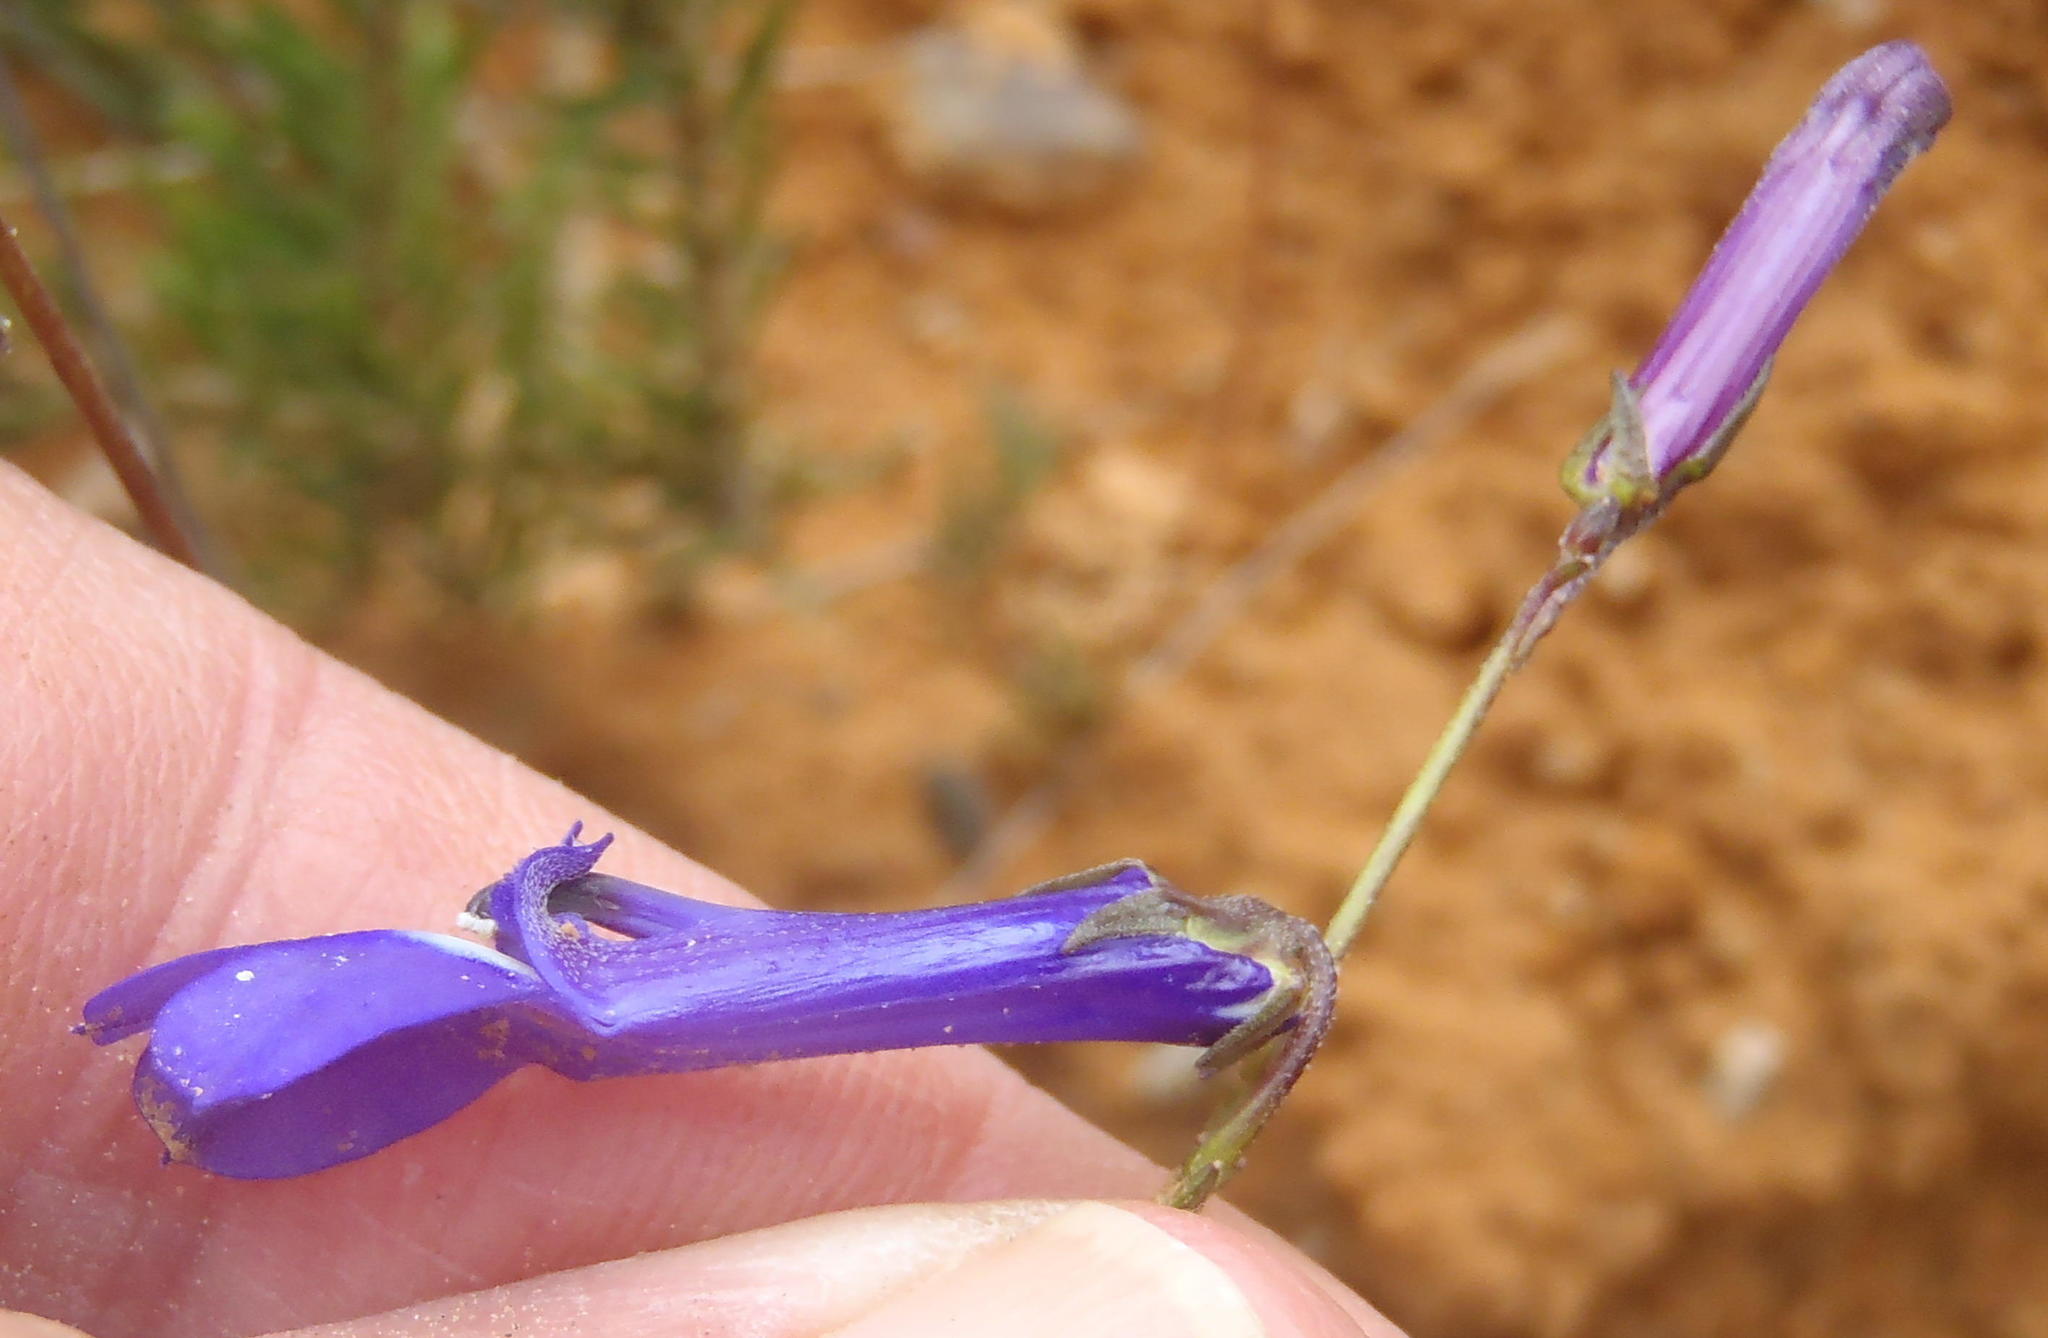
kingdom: Plantae
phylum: Tracheophyta
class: Magnoliopsida
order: Asterales
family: Campanulaceae
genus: Lobelia
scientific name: Lobelia chamaepitys
